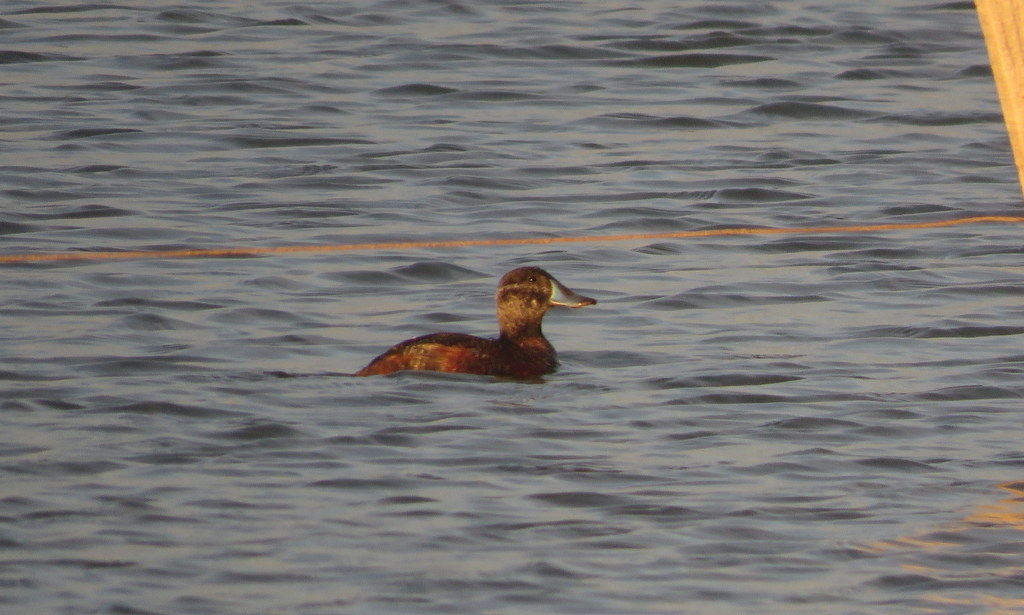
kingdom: Animalia
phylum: Chordata
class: Aves
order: Anseriformes
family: Anatidae
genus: Oxyura
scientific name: Oxyura vittata
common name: Lake duck
